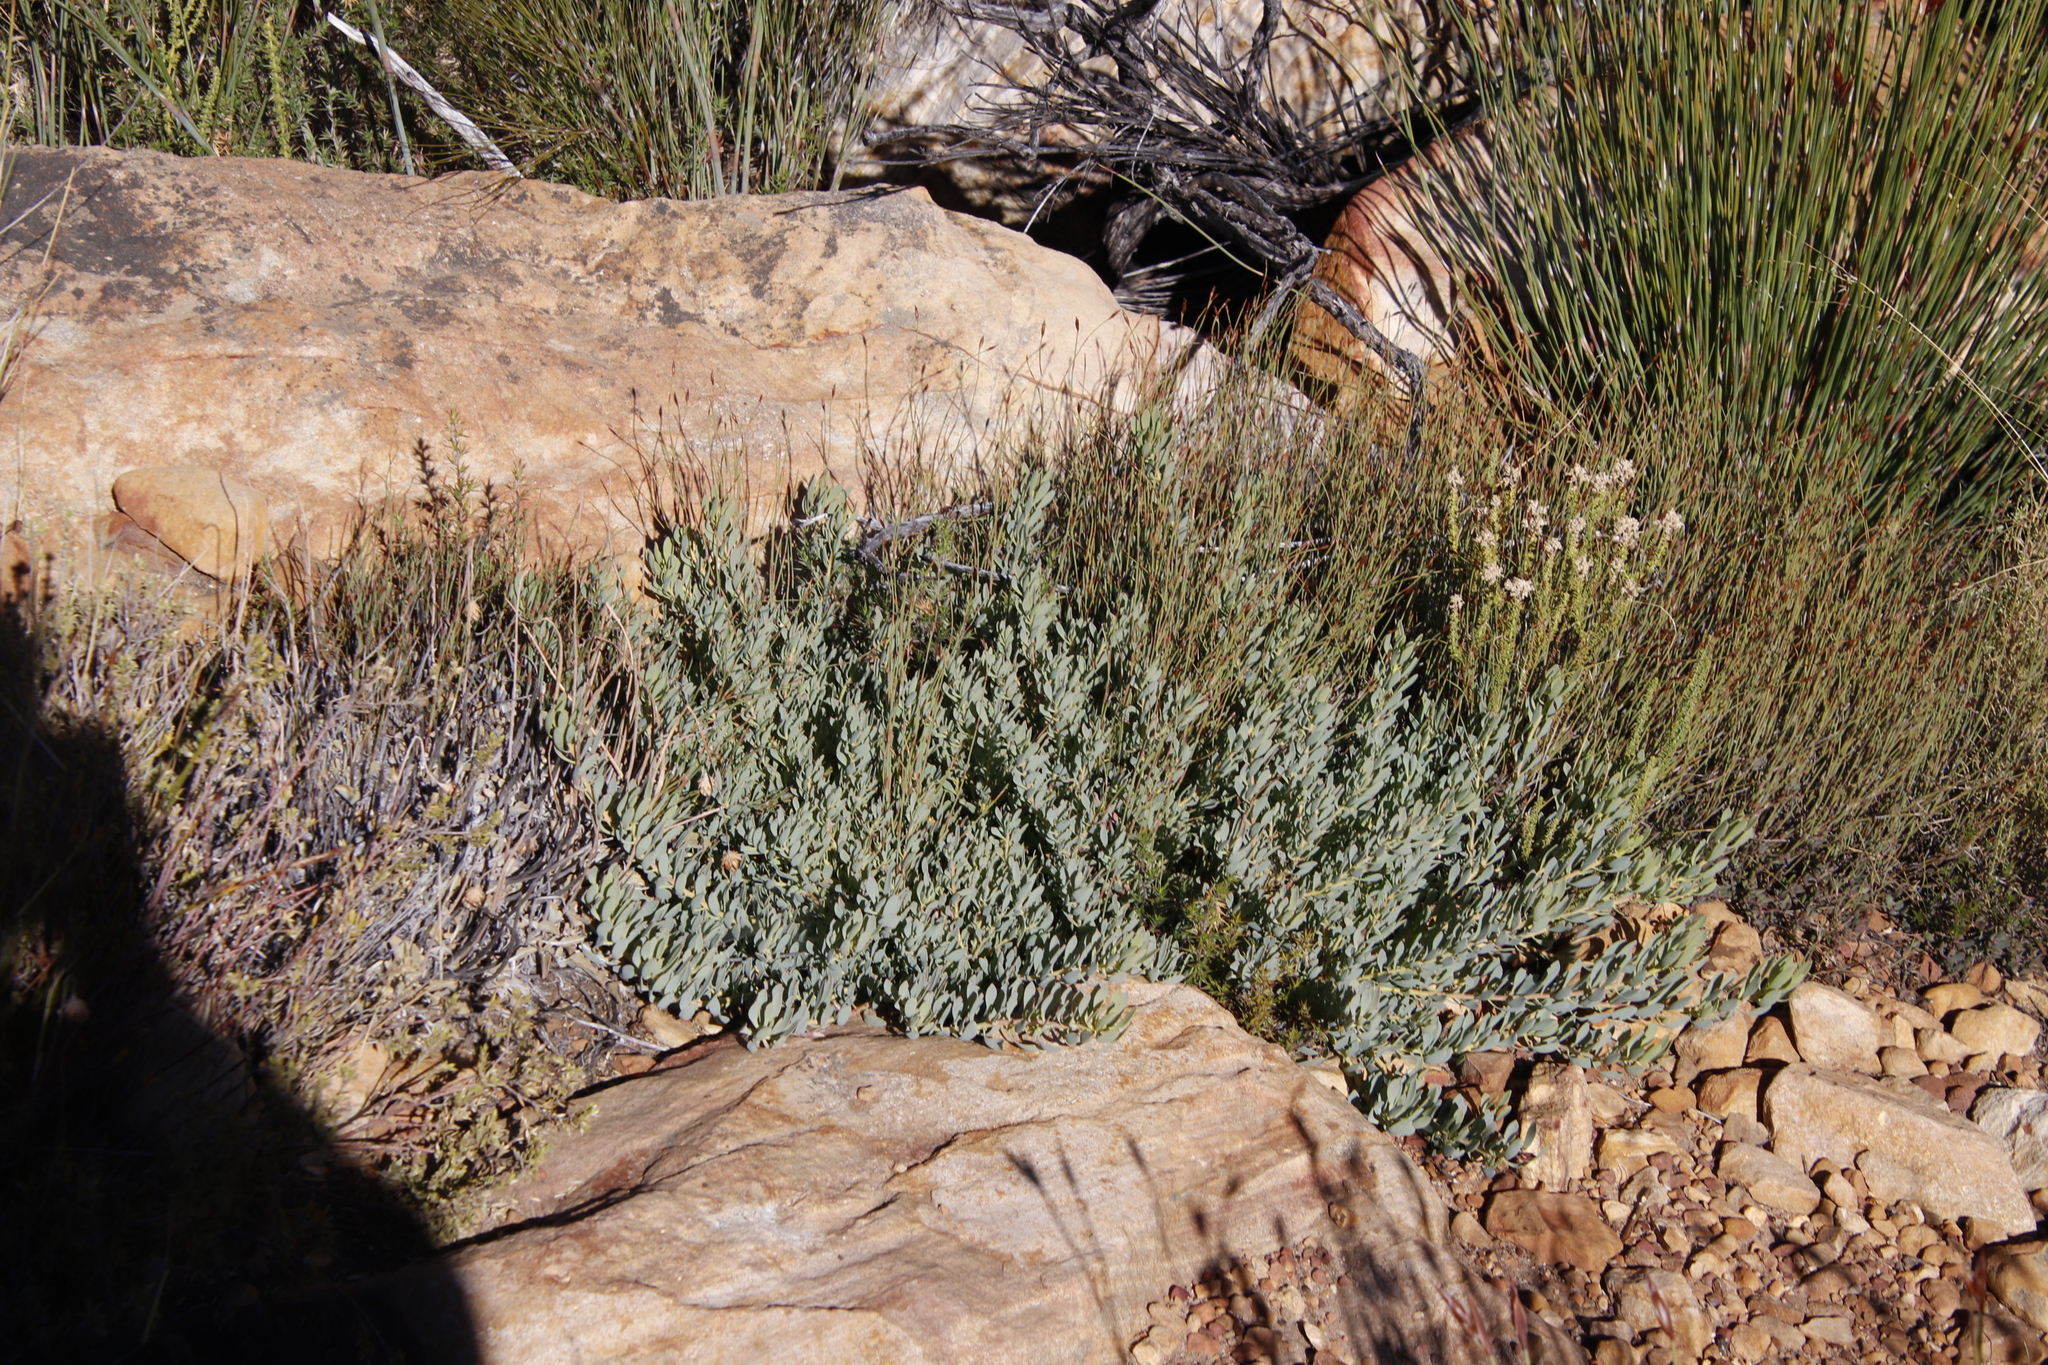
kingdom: Plantae
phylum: Tracheophyta
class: Magnoliopsida
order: Proteales
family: Proteaceae
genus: Leucadendron
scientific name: Leucadendron glaberrimum
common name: Common oily conebush
